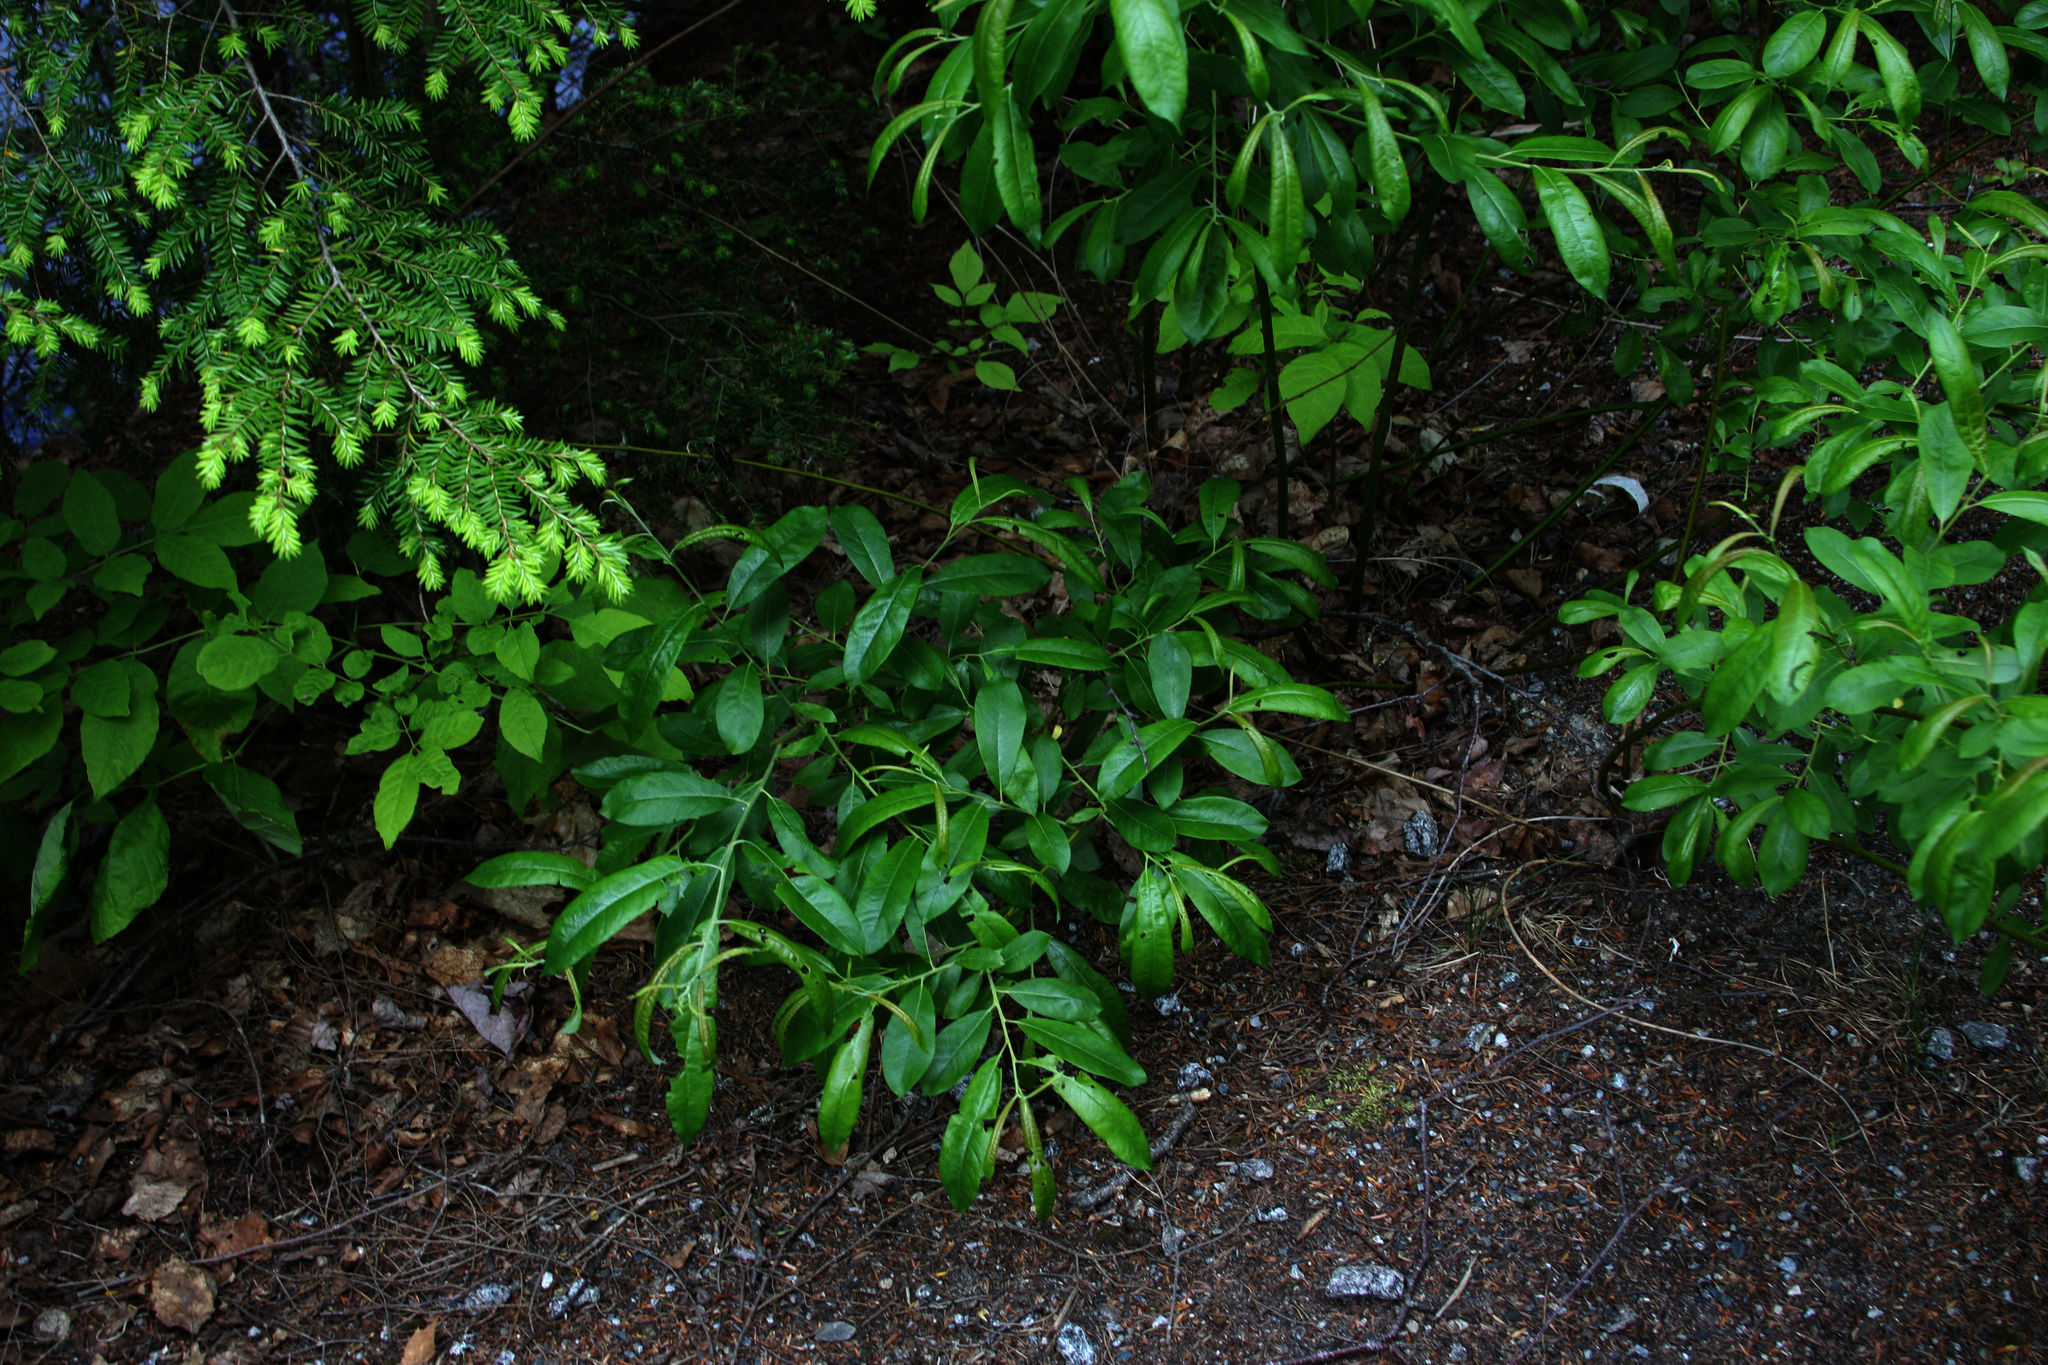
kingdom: Plantae
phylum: Tracheophyta
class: Pinopsida
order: Pinales
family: Pinaceae
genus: Tsuga
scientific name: Tsuga canadensis
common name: Eastern hemlock
